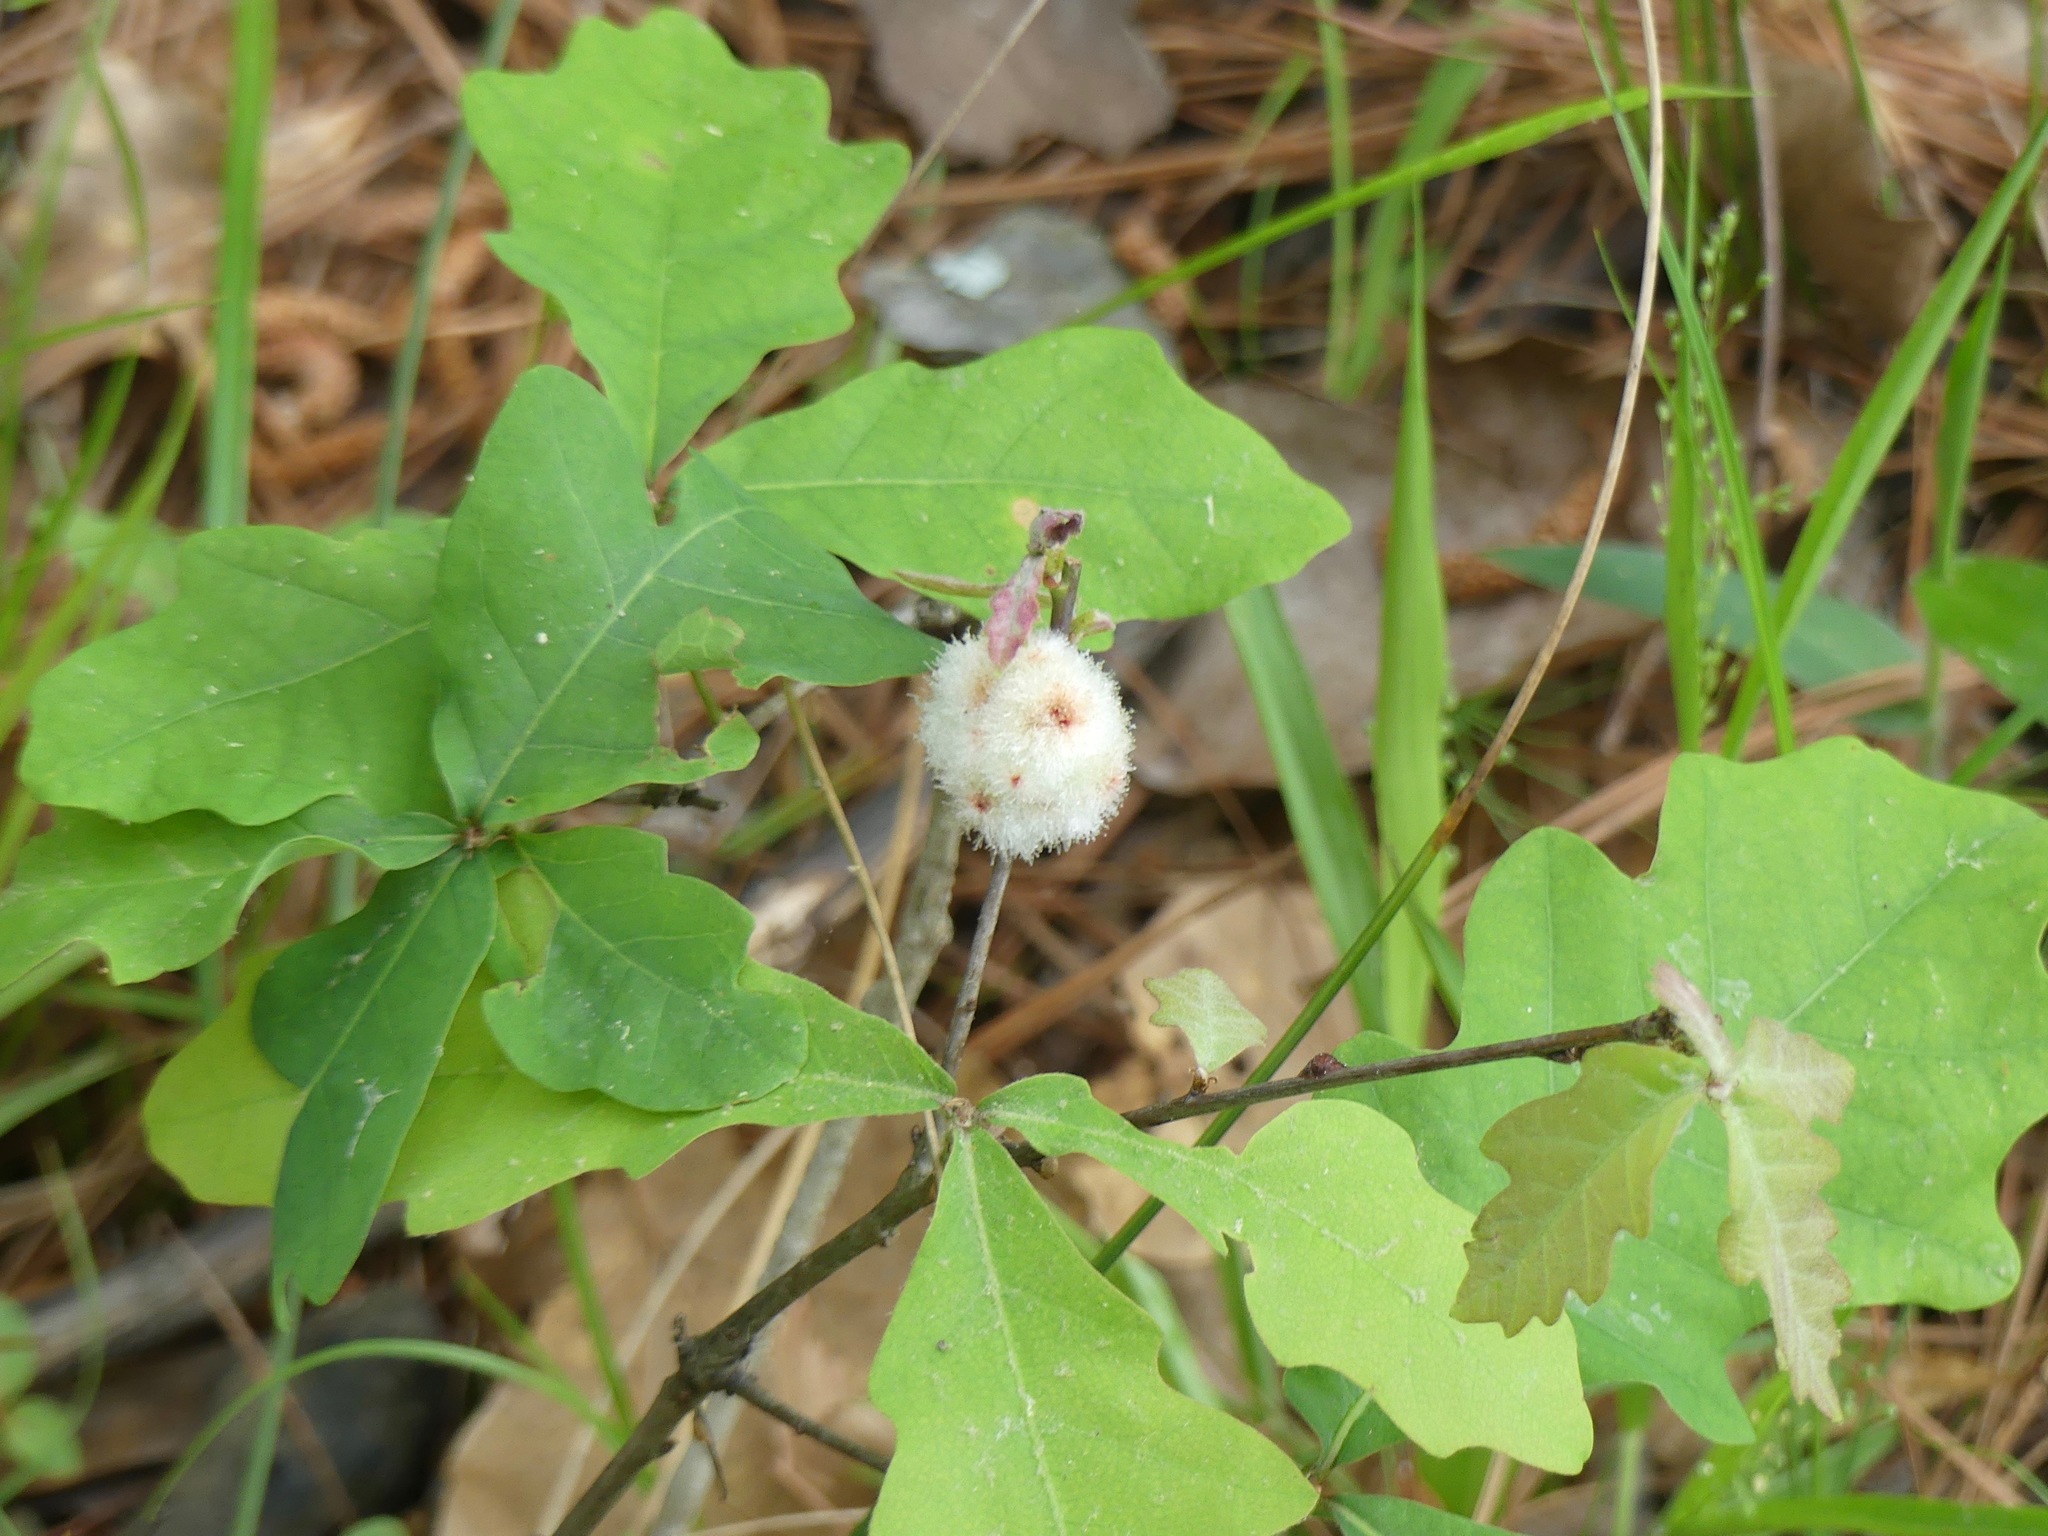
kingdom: Animalia
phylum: Arthropoda
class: Insecta
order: Hymenoptera
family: Cynipidae
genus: Callirhytis
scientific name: Callirhytis
